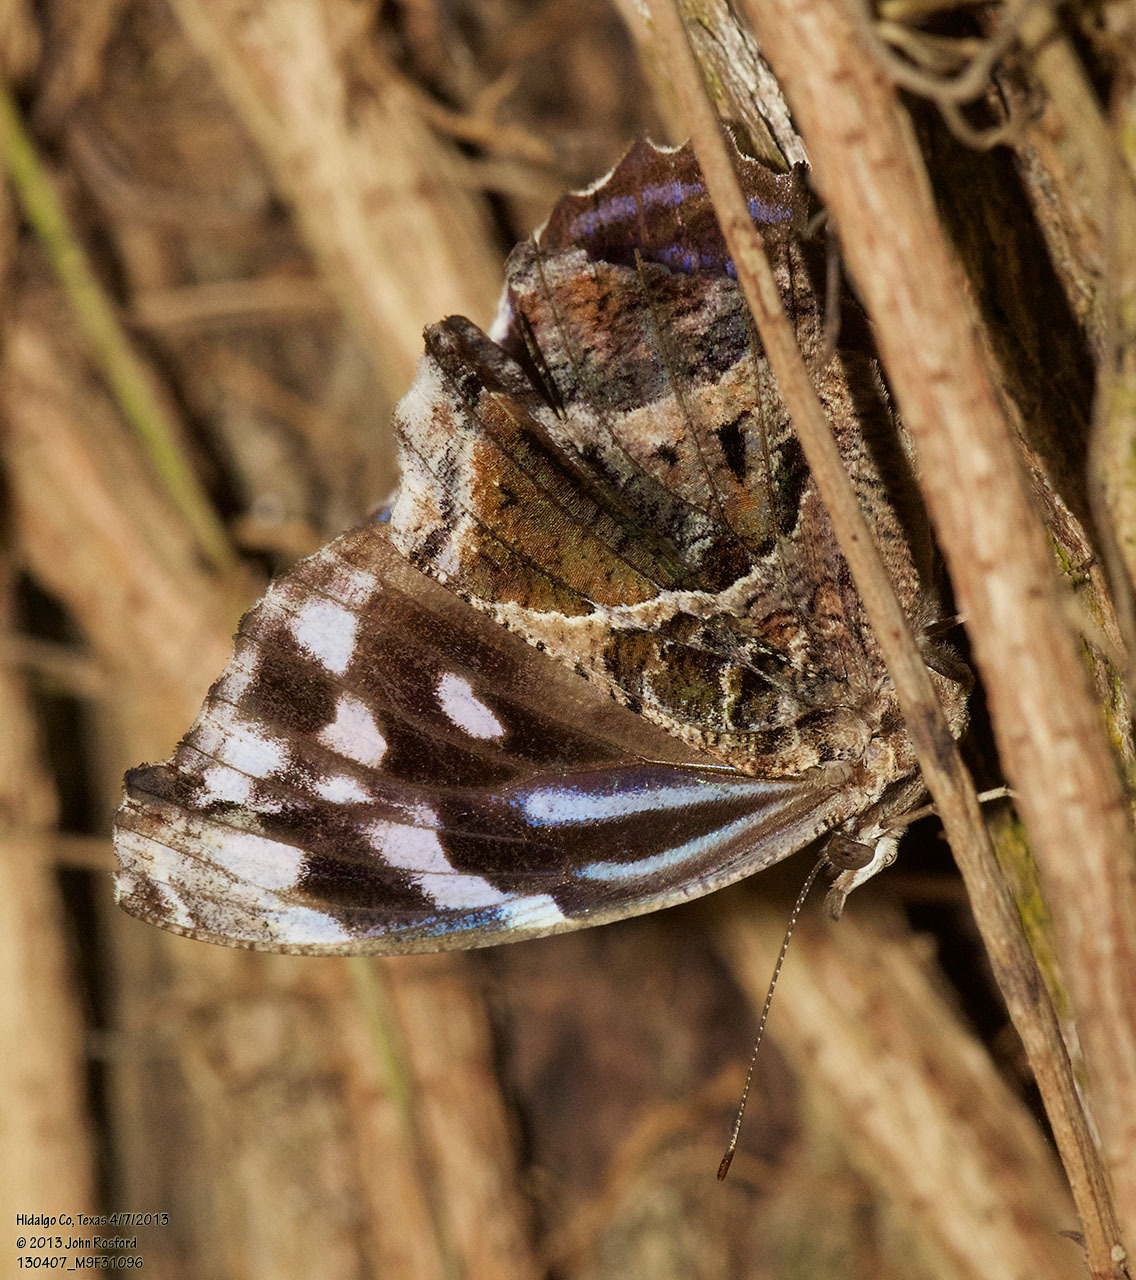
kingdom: Animalia
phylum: Arthropoda
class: Insecta
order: Lepidoptera
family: Nymphalidae
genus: Myscelia
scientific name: Myscelia ethusa
